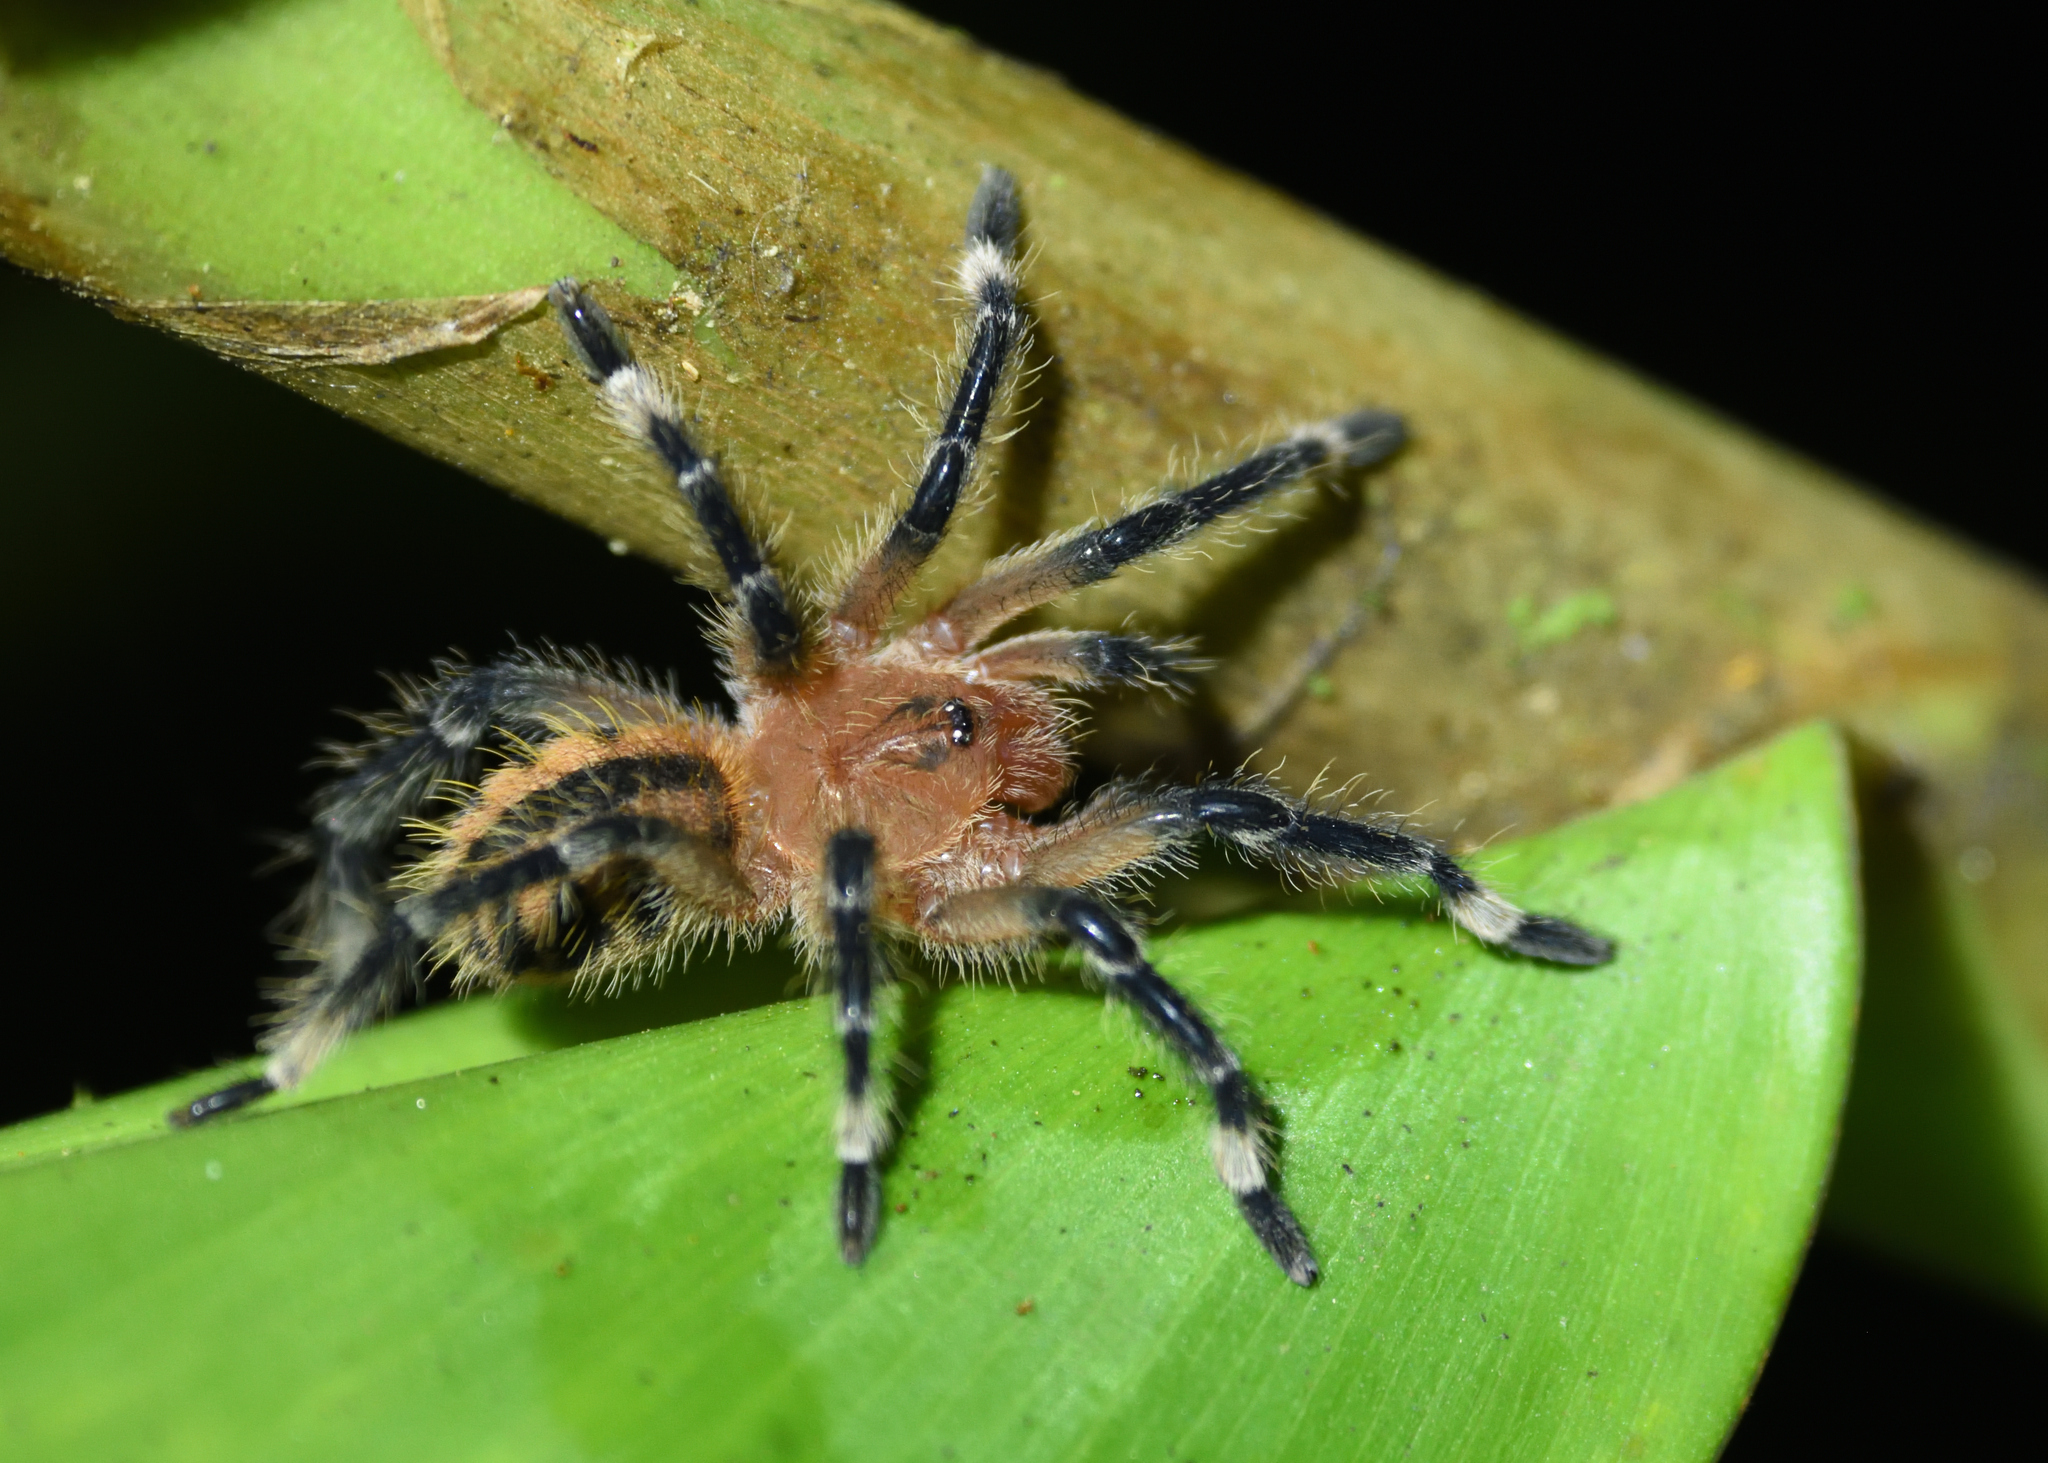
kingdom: Animalia
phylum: Arthropoda
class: Arachnida
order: Araneae
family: Theraphosidae
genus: Kankuamo
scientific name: Kankuamo marquezi
